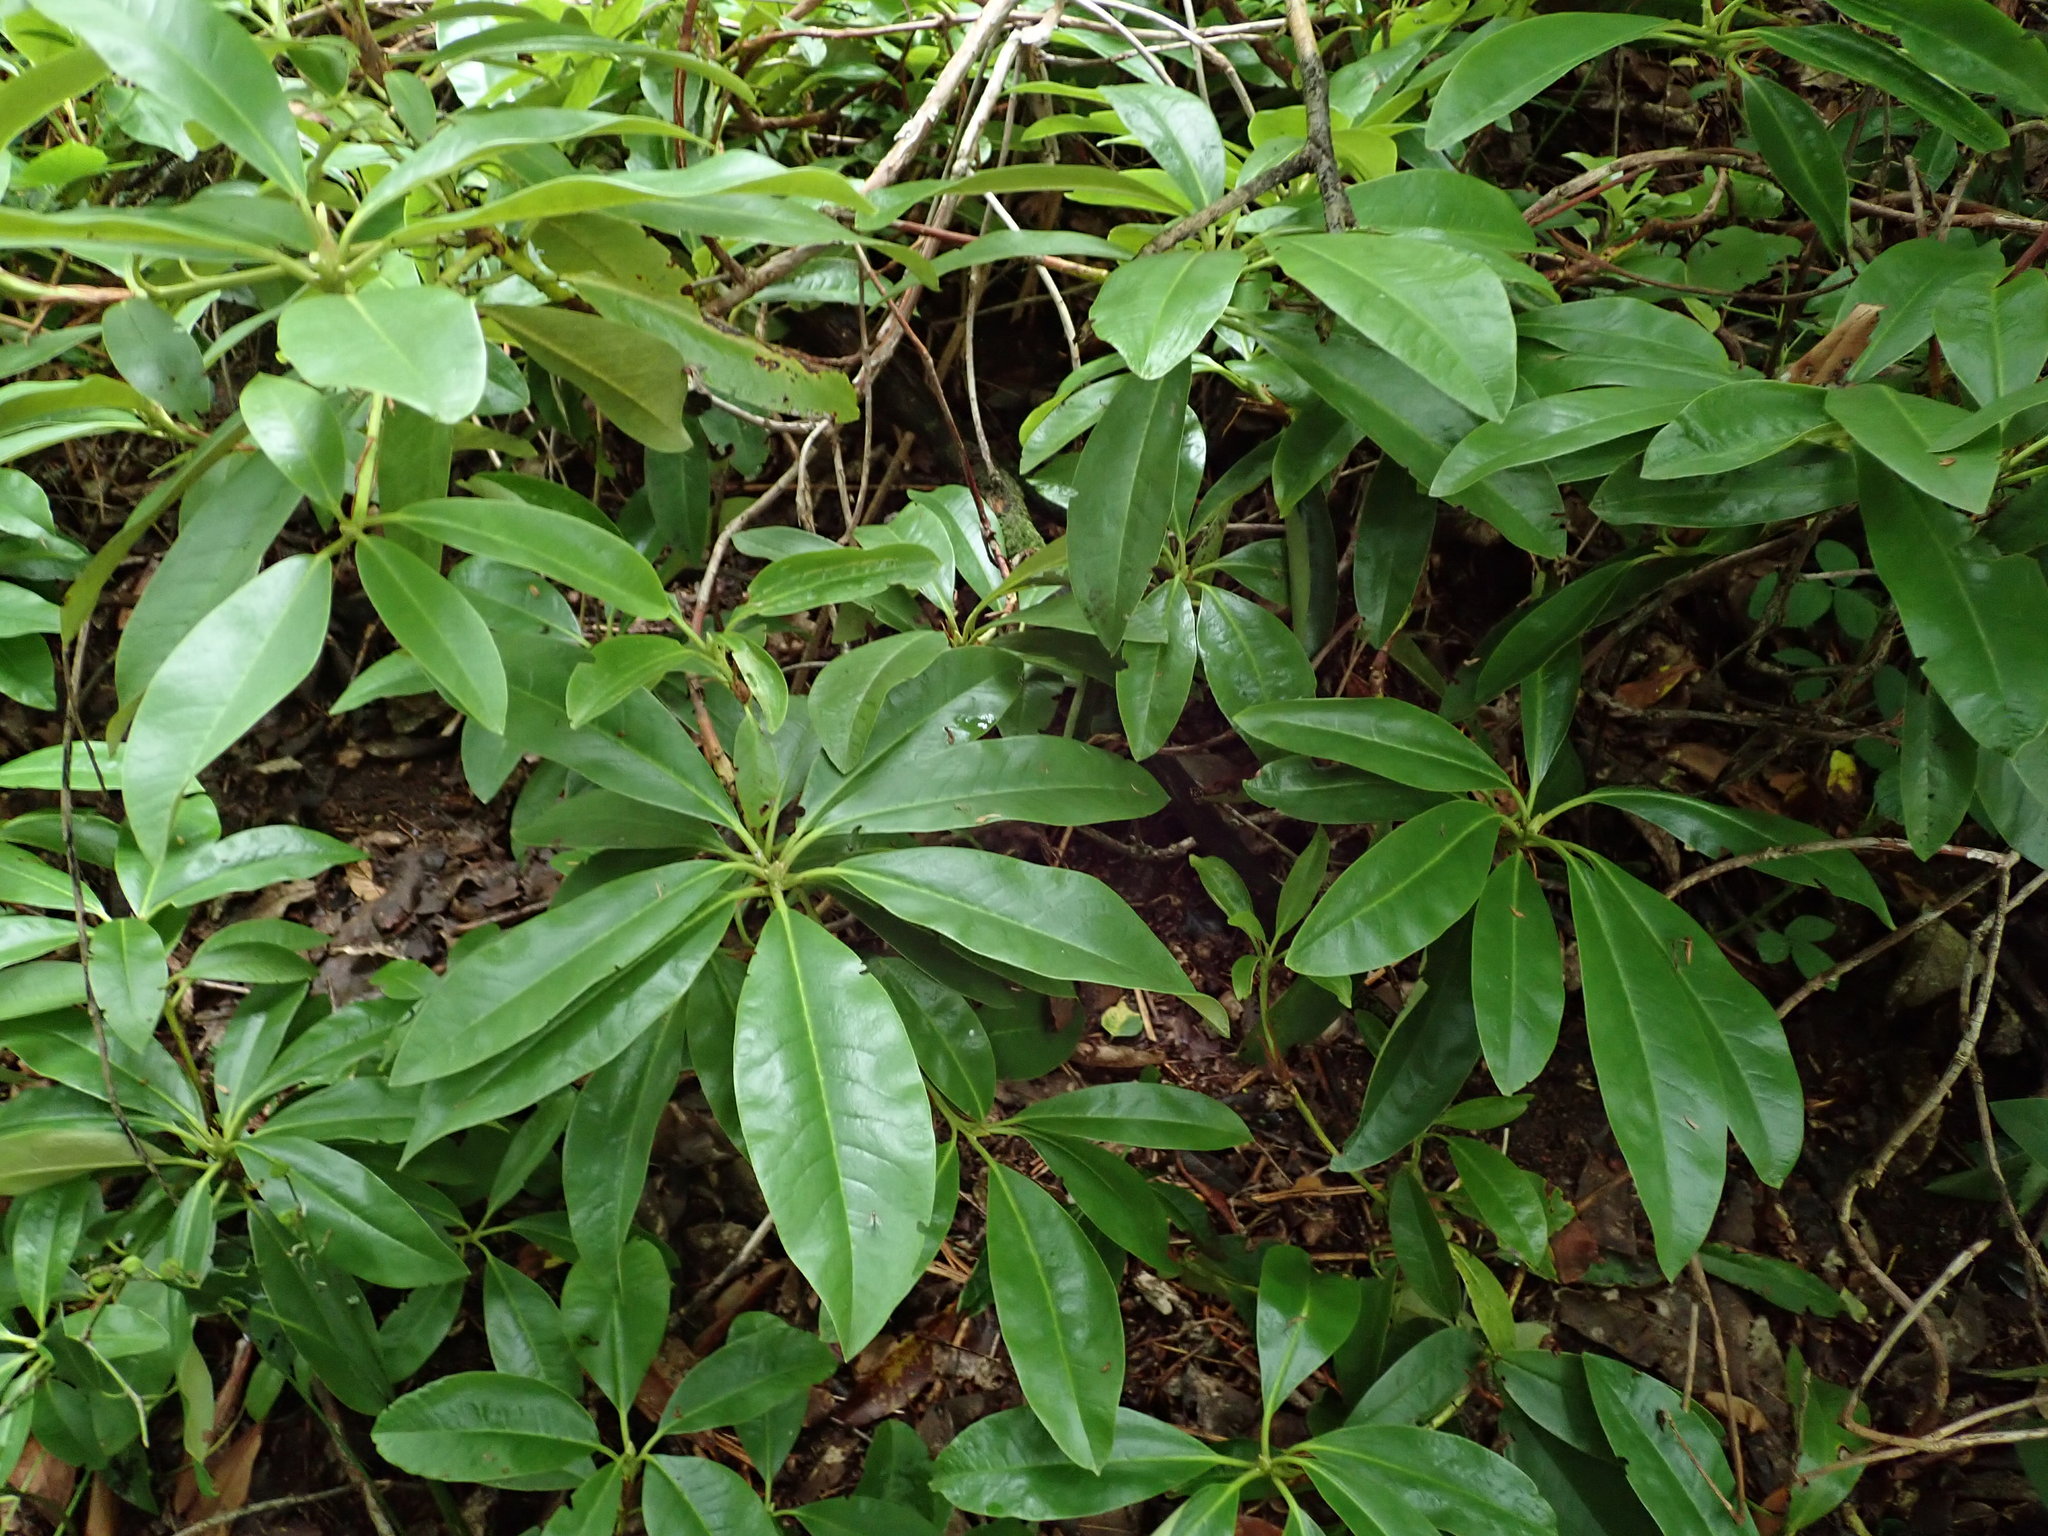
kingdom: Plantae
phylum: Tracheophyta
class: Magnoliopsida
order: Ericales
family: Ericaceae
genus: Rhododendron
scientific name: Rhododendron ponticum
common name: Rhododendron
